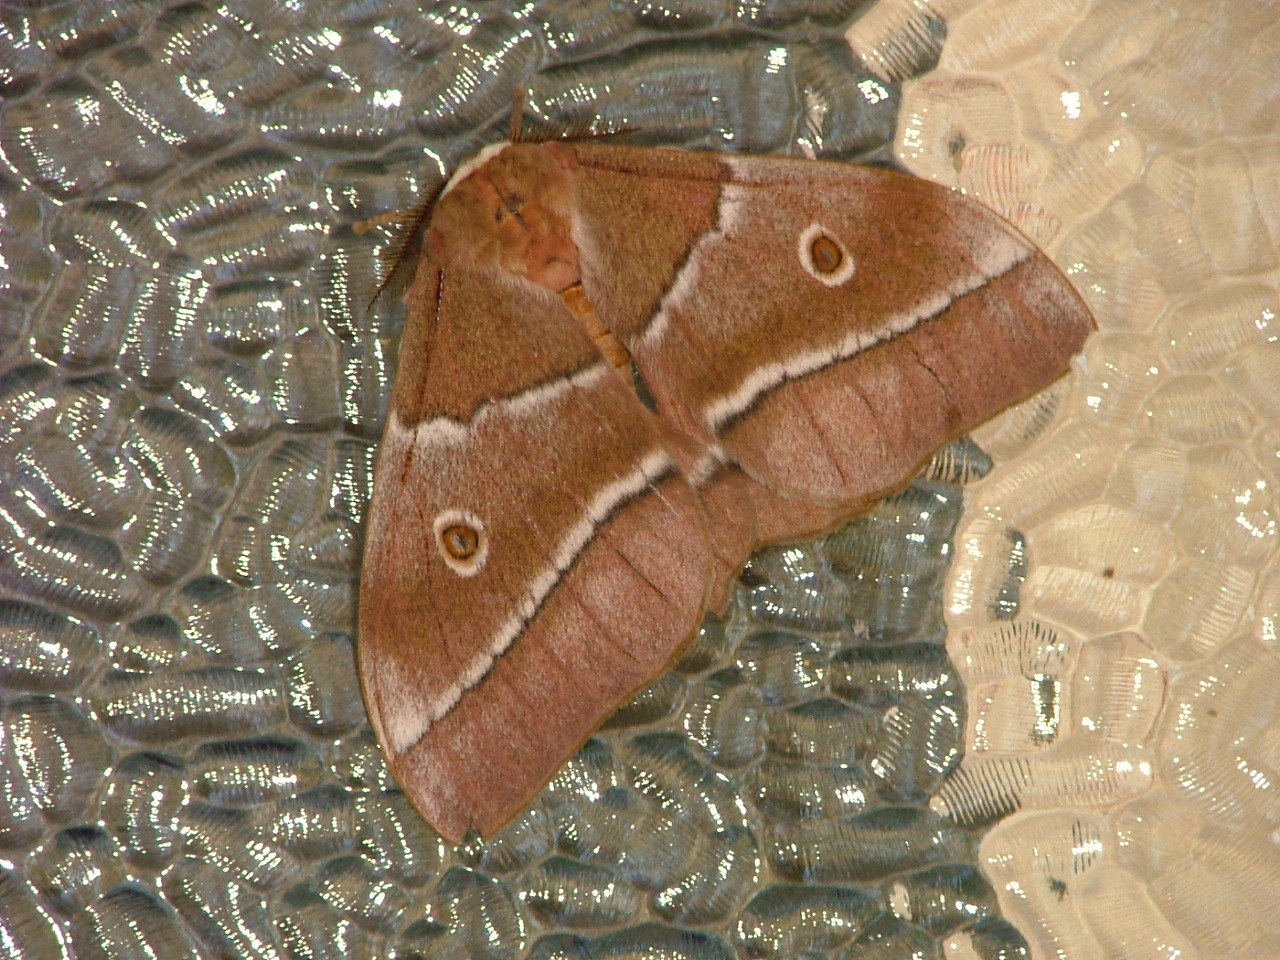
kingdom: Animalia
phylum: Arthropoda
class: Insecta
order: Lepidoptera
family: Saturniidae
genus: Gonimbrasia
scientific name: Gonimbrasia belina
